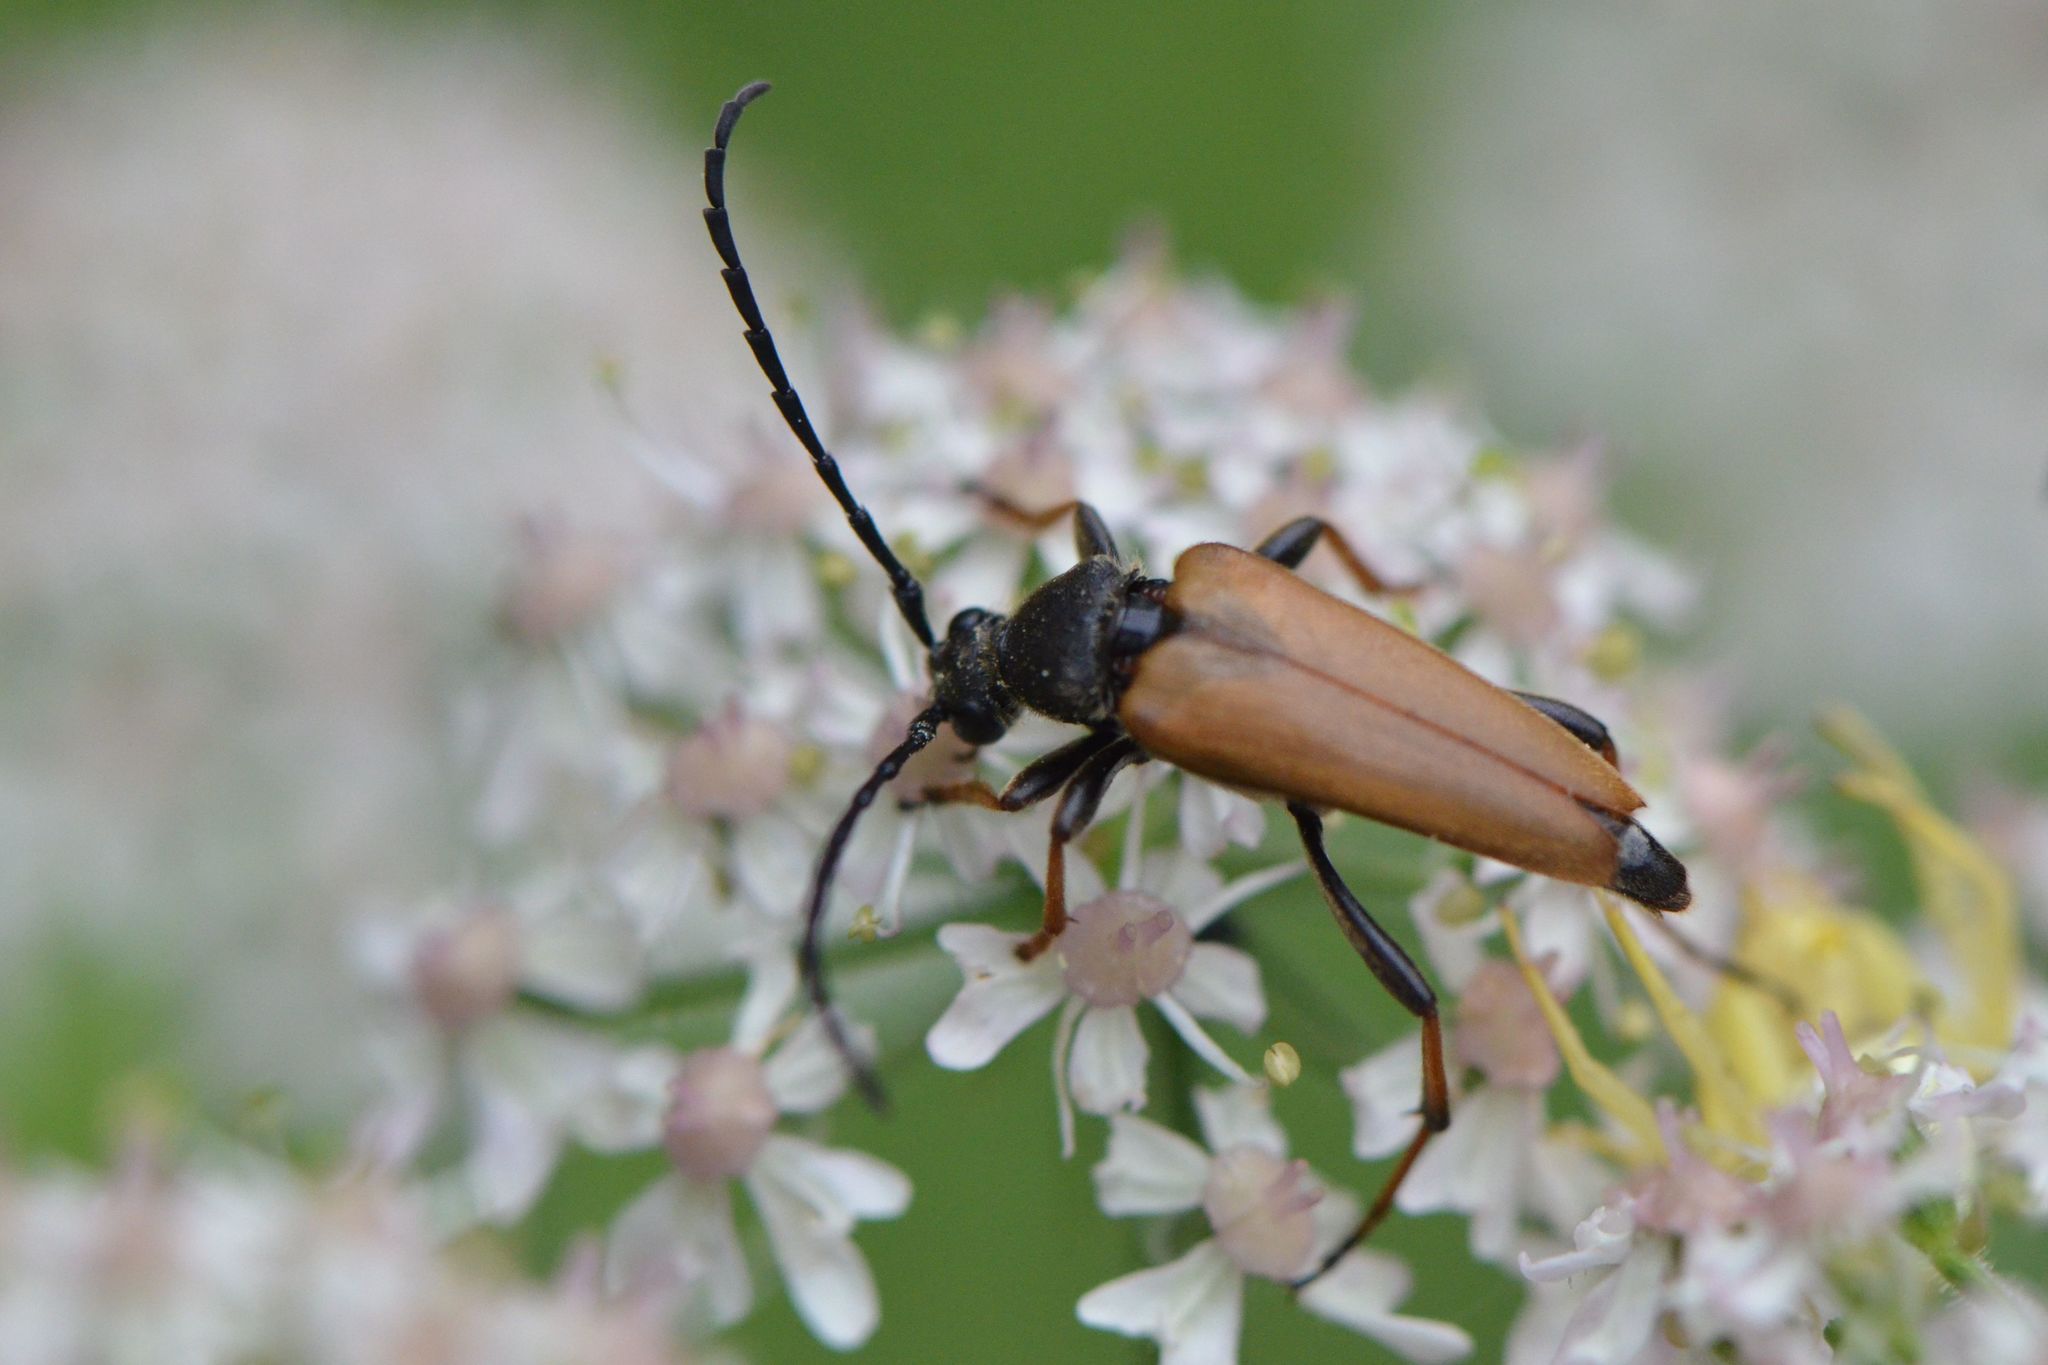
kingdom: Animalia
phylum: Arthropoda
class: Insecta
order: Coleoptera
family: Cerambycidae
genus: Stictoleptura
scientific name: Stictoleptura rubra
